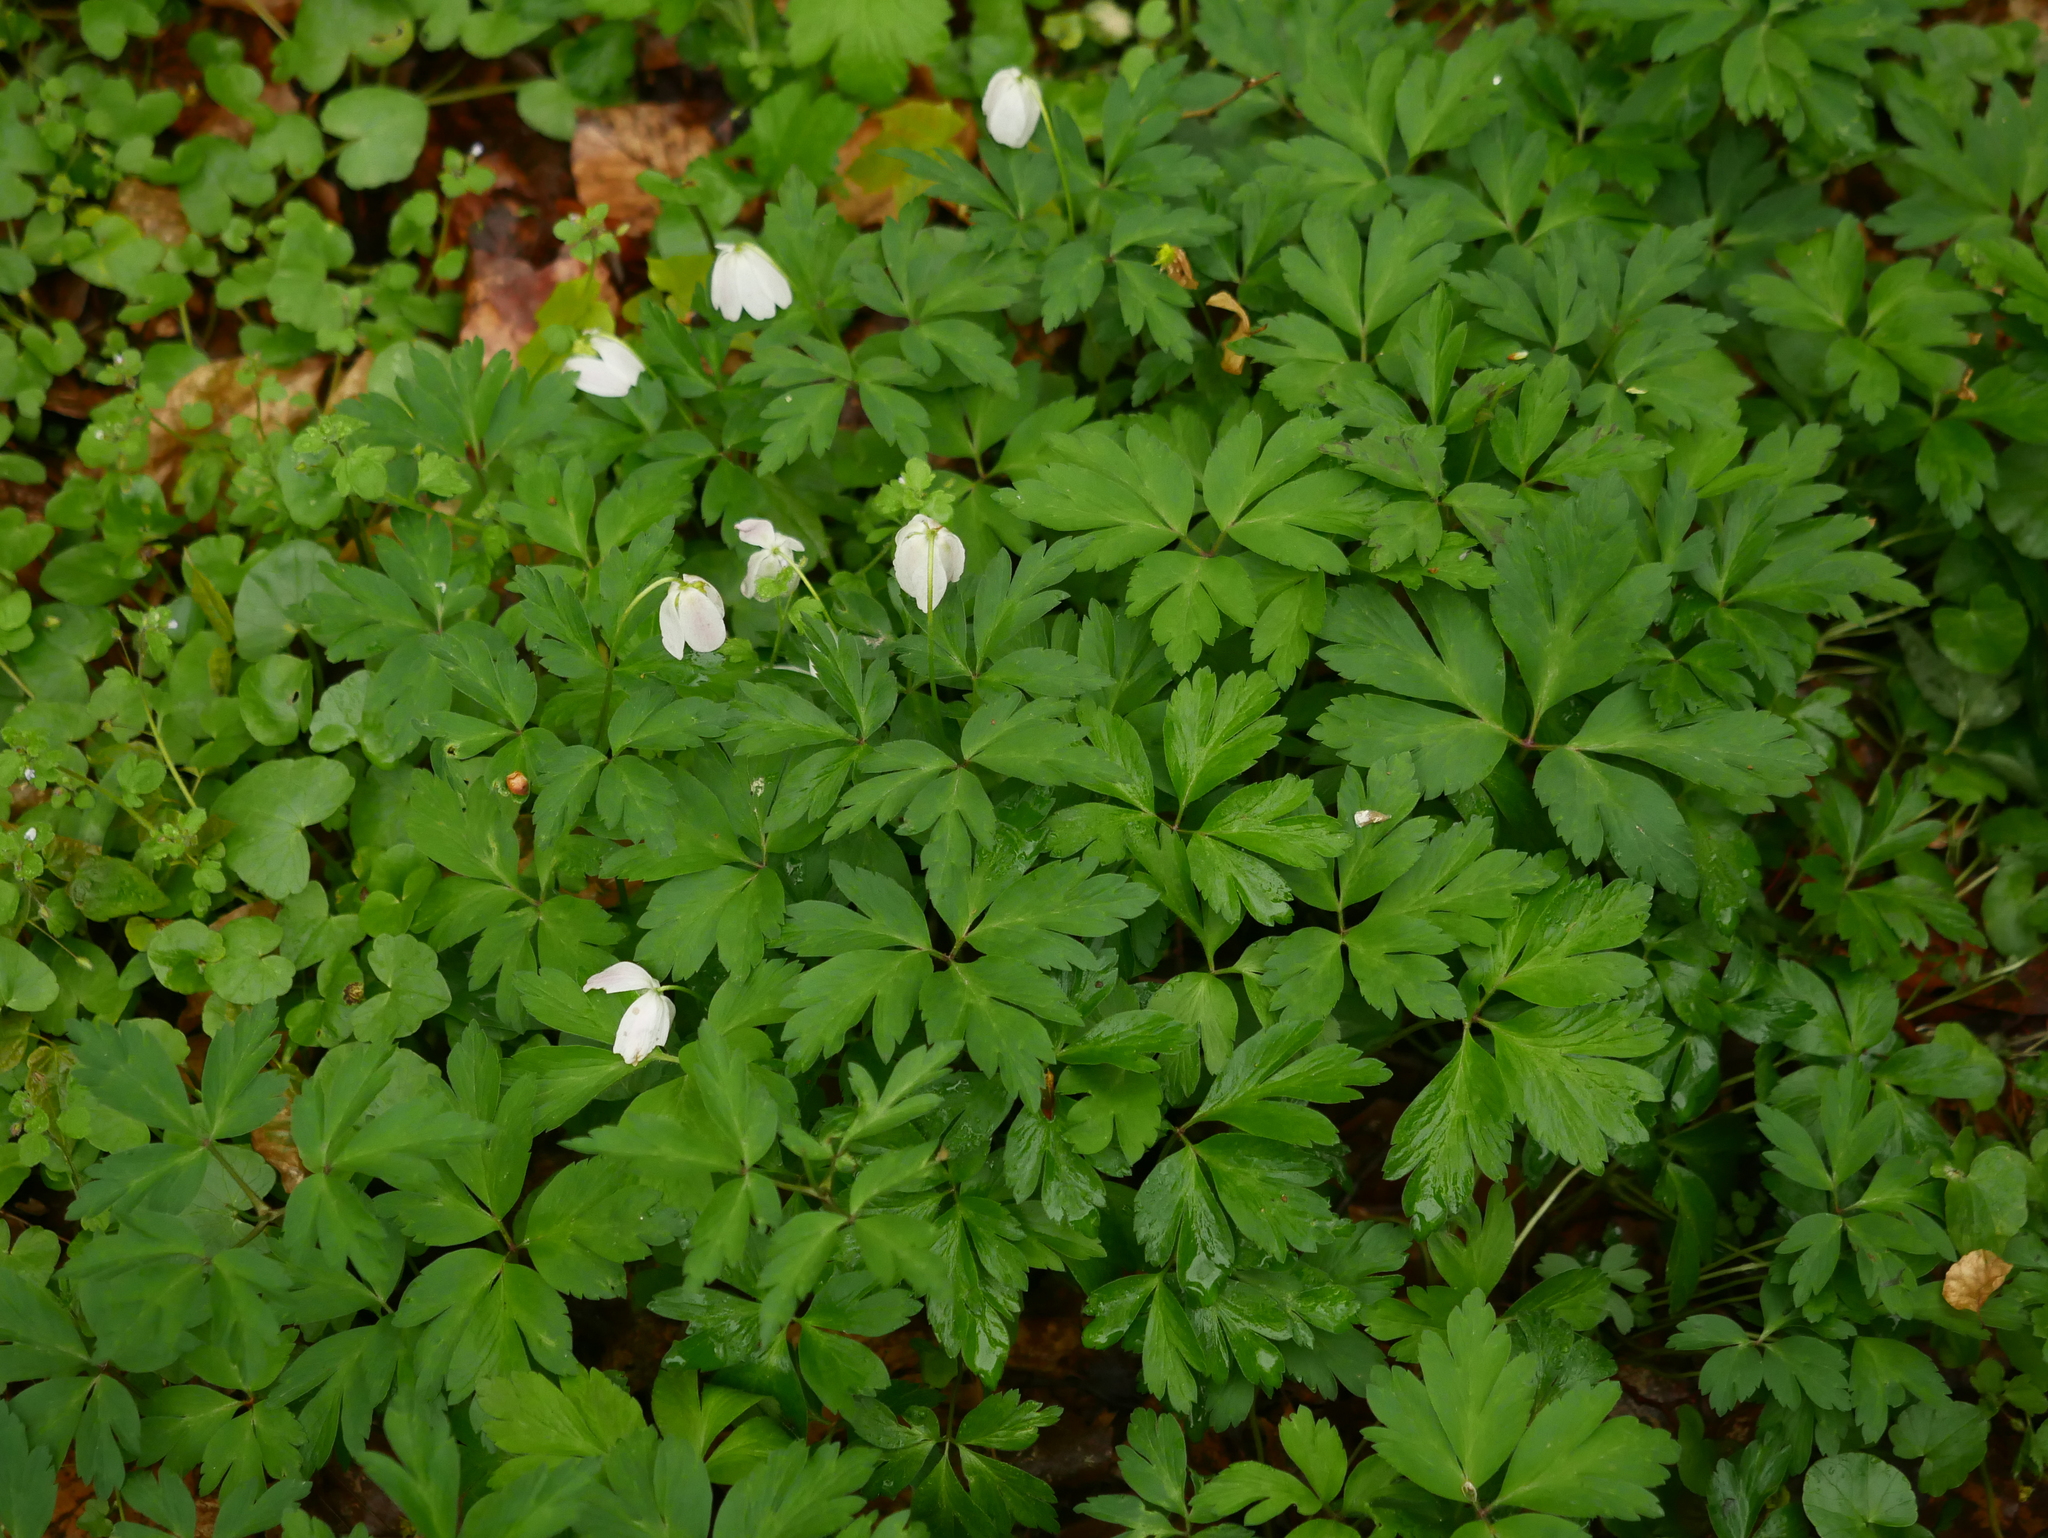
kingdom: Plantae
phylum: Tracheophyta
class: Magnoliopsida
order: Ranunculales
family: Ranunculaceae
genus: Anemone
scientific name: Anemone nemorosa
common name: Wood anemone
